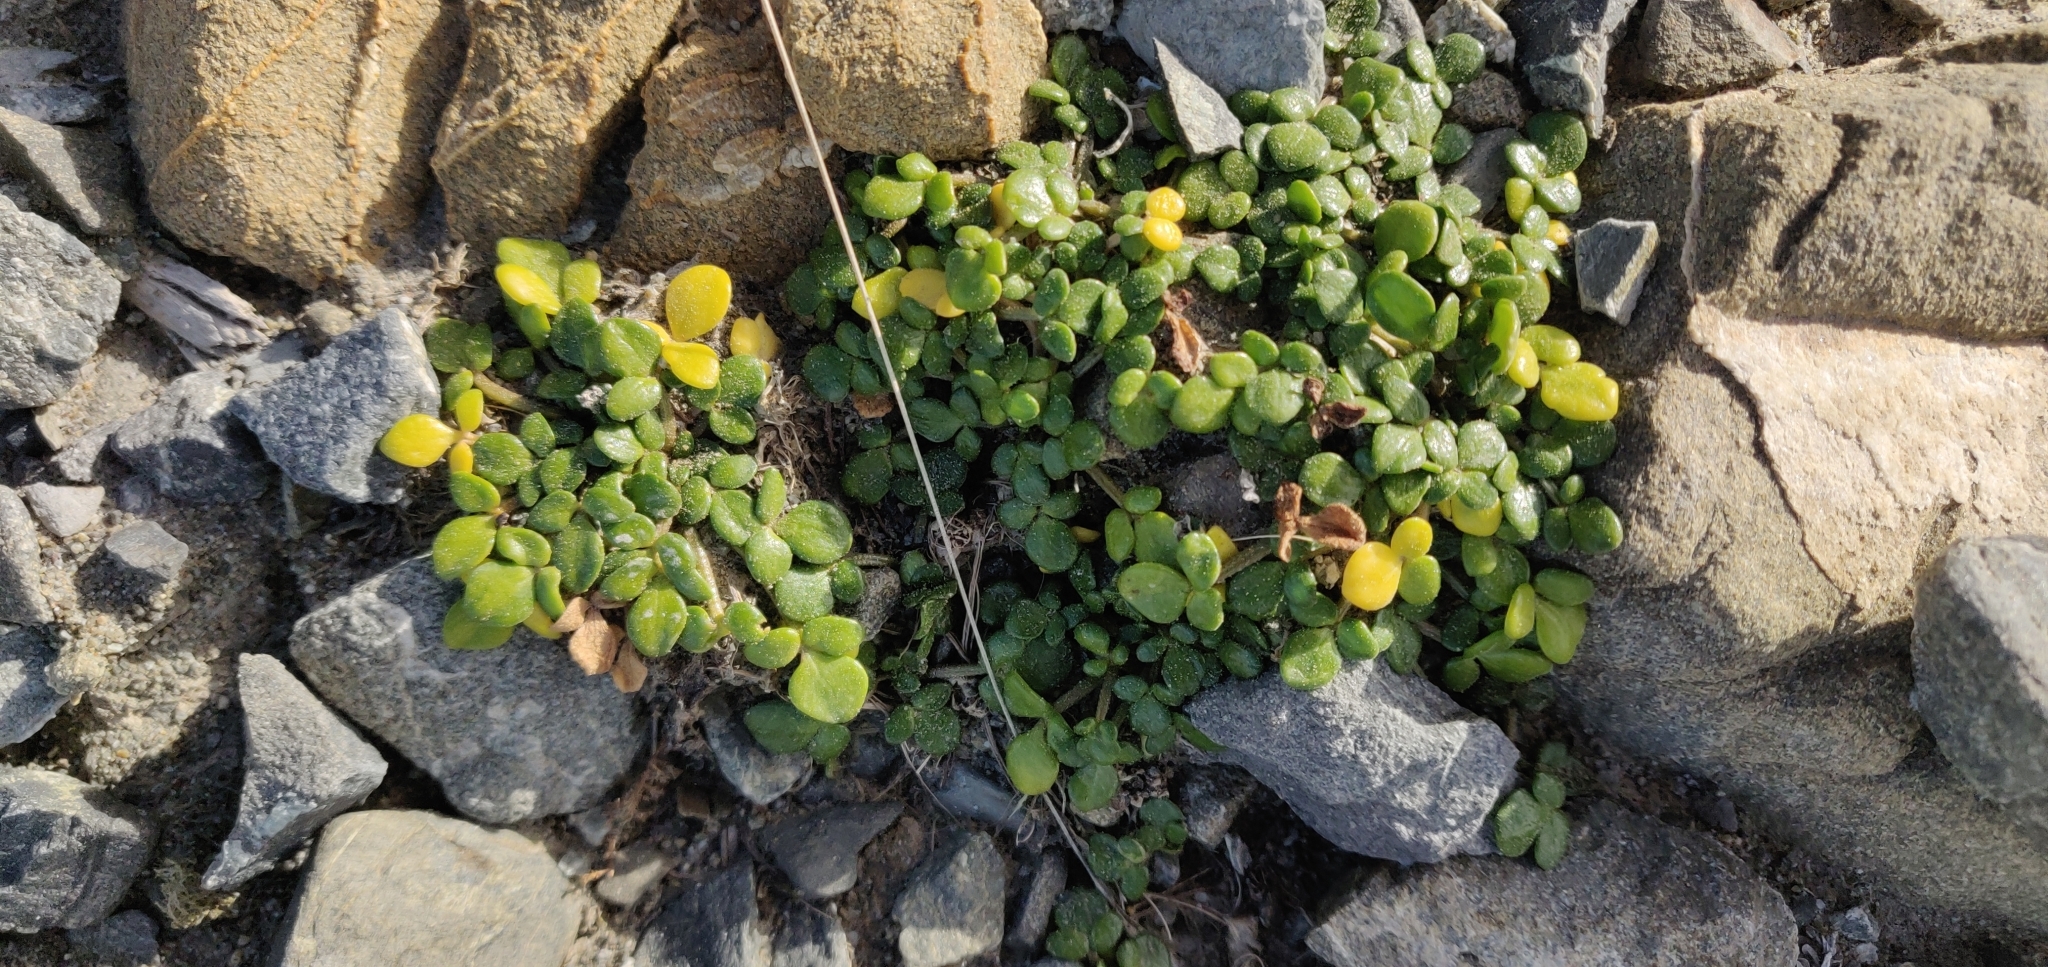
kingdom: Plantae
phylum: Tracheophyta
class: Magnoliopsida
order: Ranunculales
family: Ranunculaceae
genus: Ranunculus
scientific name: Ranunculus acaulis
